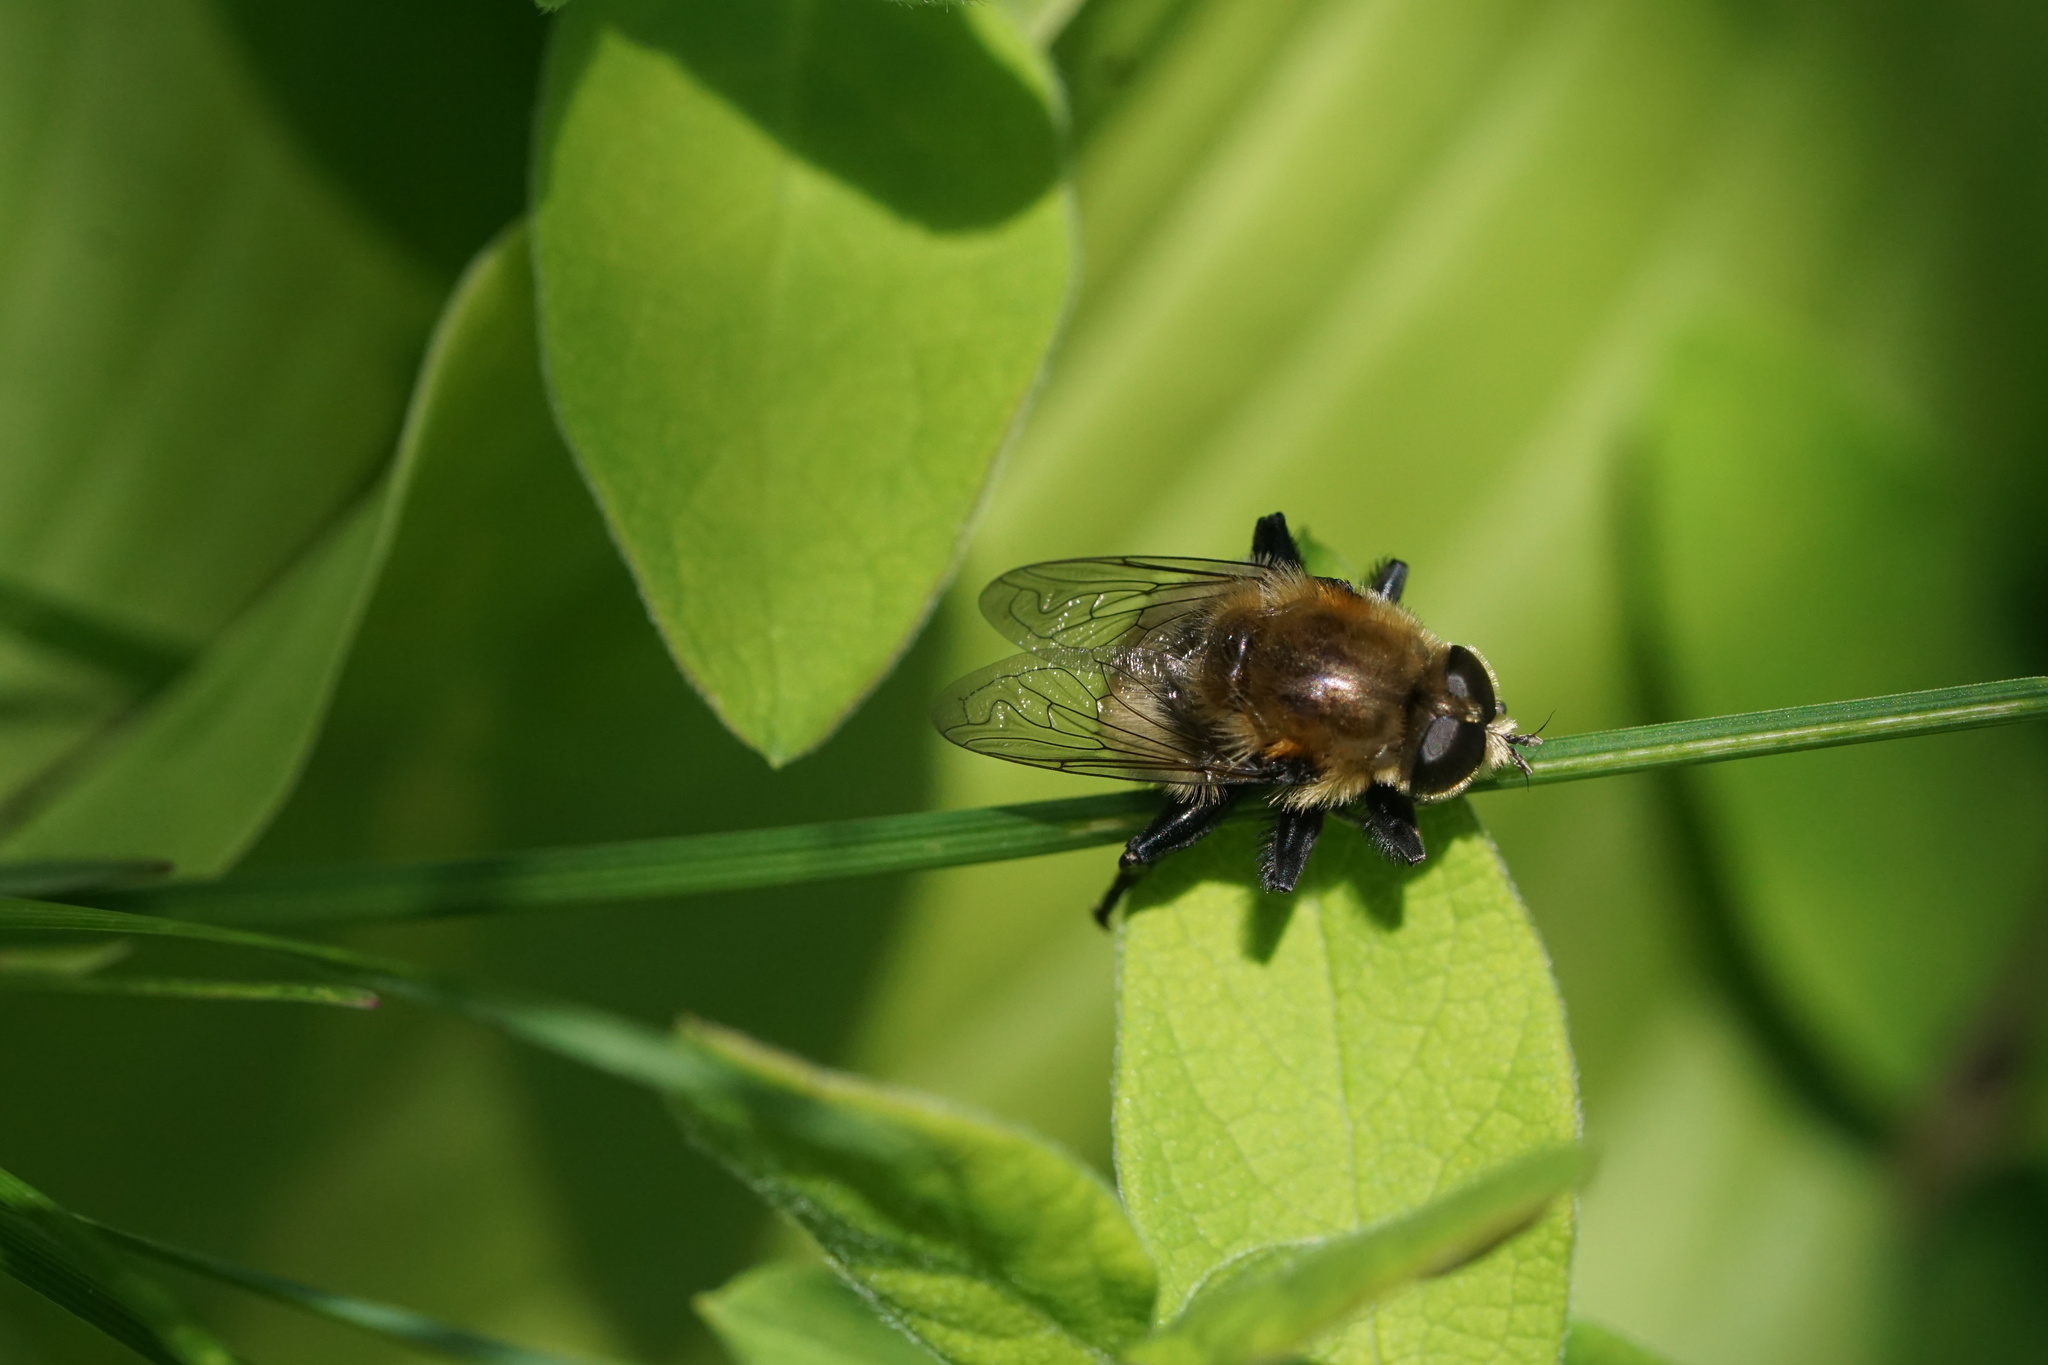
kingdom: Animalia
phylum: Arthropoda
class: Insecta
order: Diptera
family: Syrphidae
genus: Merodon
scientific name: Merodon equestris
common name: Greater bulb-fly
